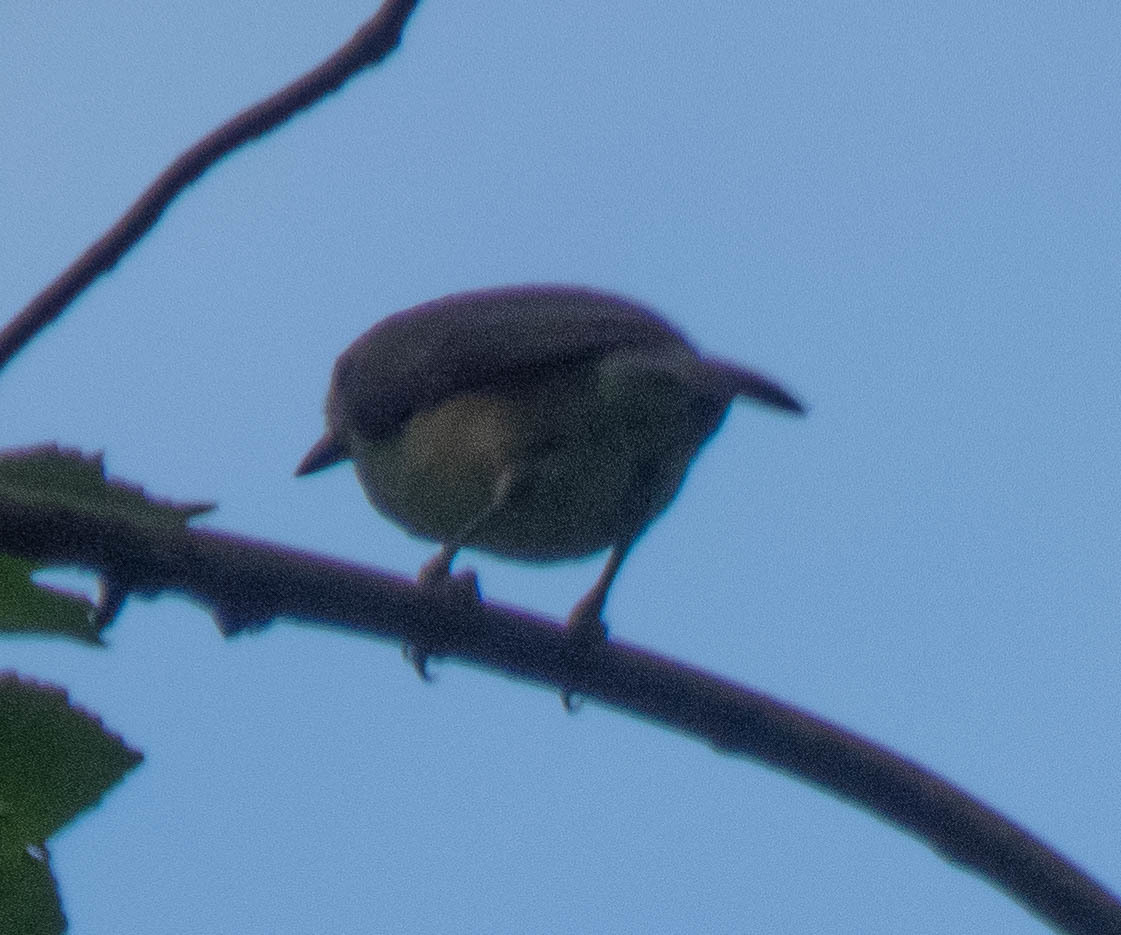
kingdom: Animalia
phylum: Chordata
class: Aves
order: Passeriformes
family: Paridae
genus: Baeolophus
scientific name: Baeolophus bicolor
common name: Tufted titmouse
